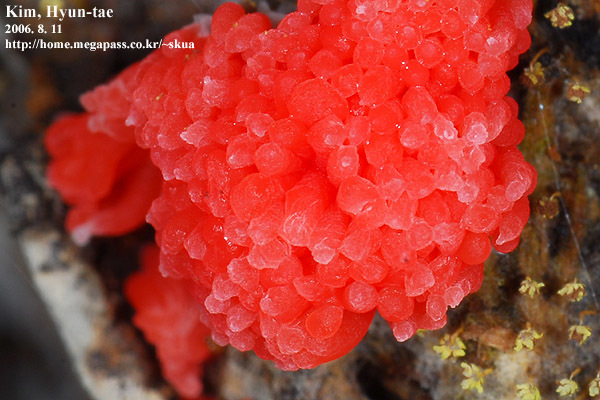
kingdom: Protozoa
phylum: Mycetozoa
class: Myxomycetes
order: Cribrariales
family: Tubiferaceae
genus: Tubifera
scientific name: Tubifera ferruginosa
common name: Red raspberry slime mold
